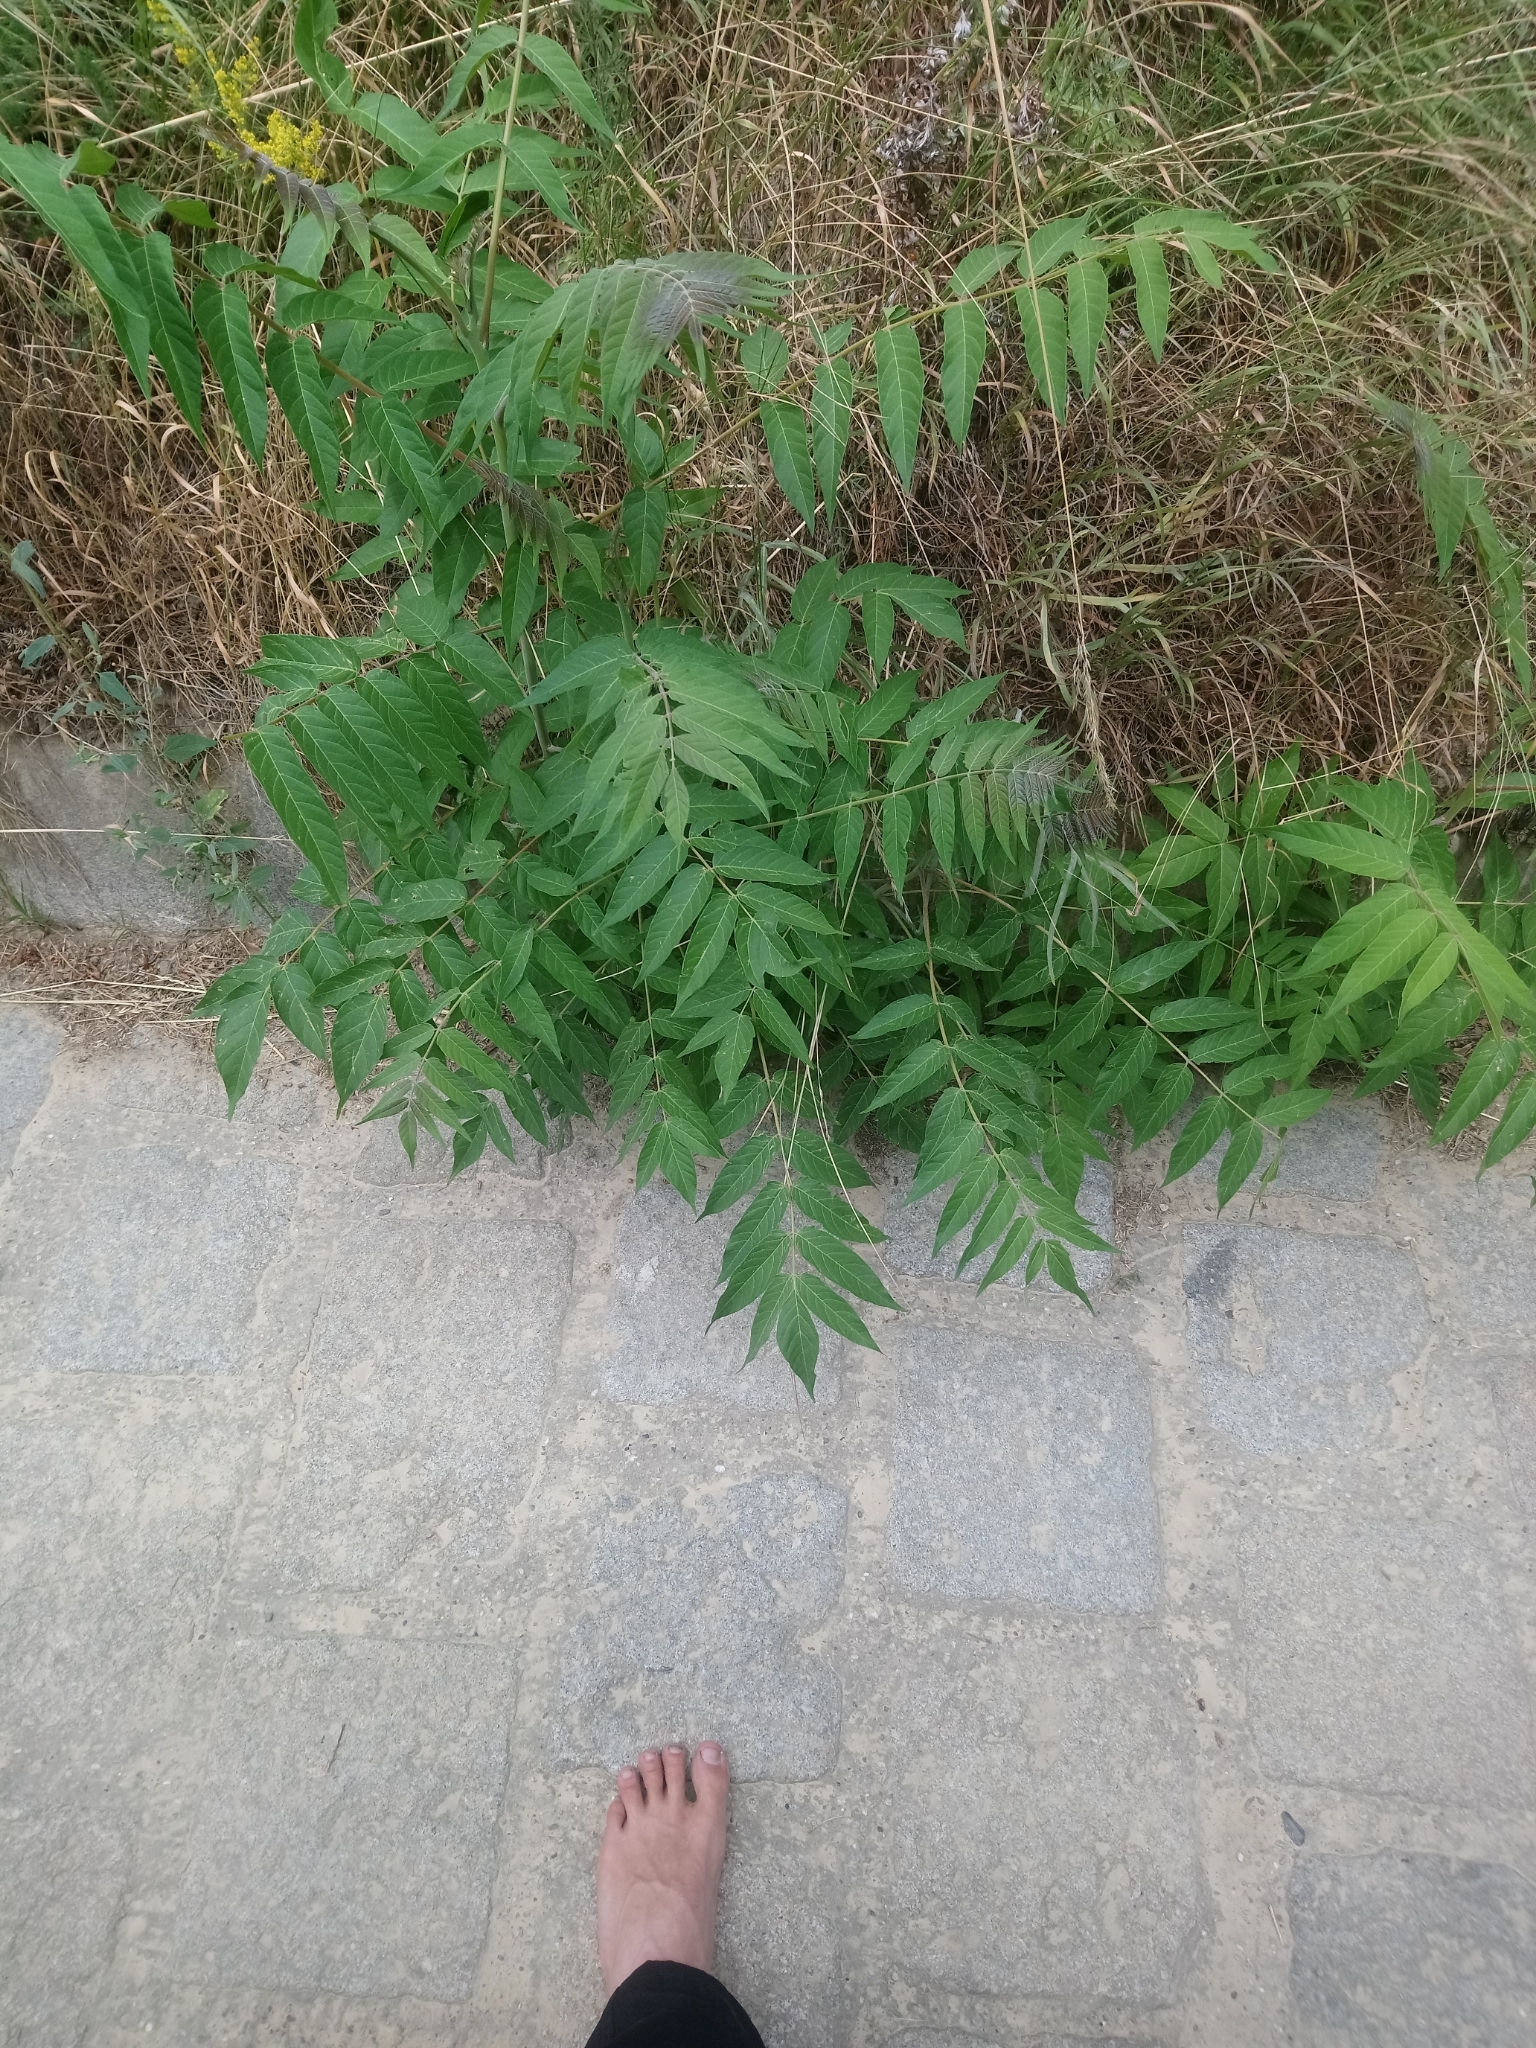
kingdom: Plantae
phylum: Tracheophyta
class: Magnoliopsida
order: Sapindales
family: Simaroubaceae
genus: Ailanthus
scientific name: Ailanthus altissima
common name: Tree-of-heaven
